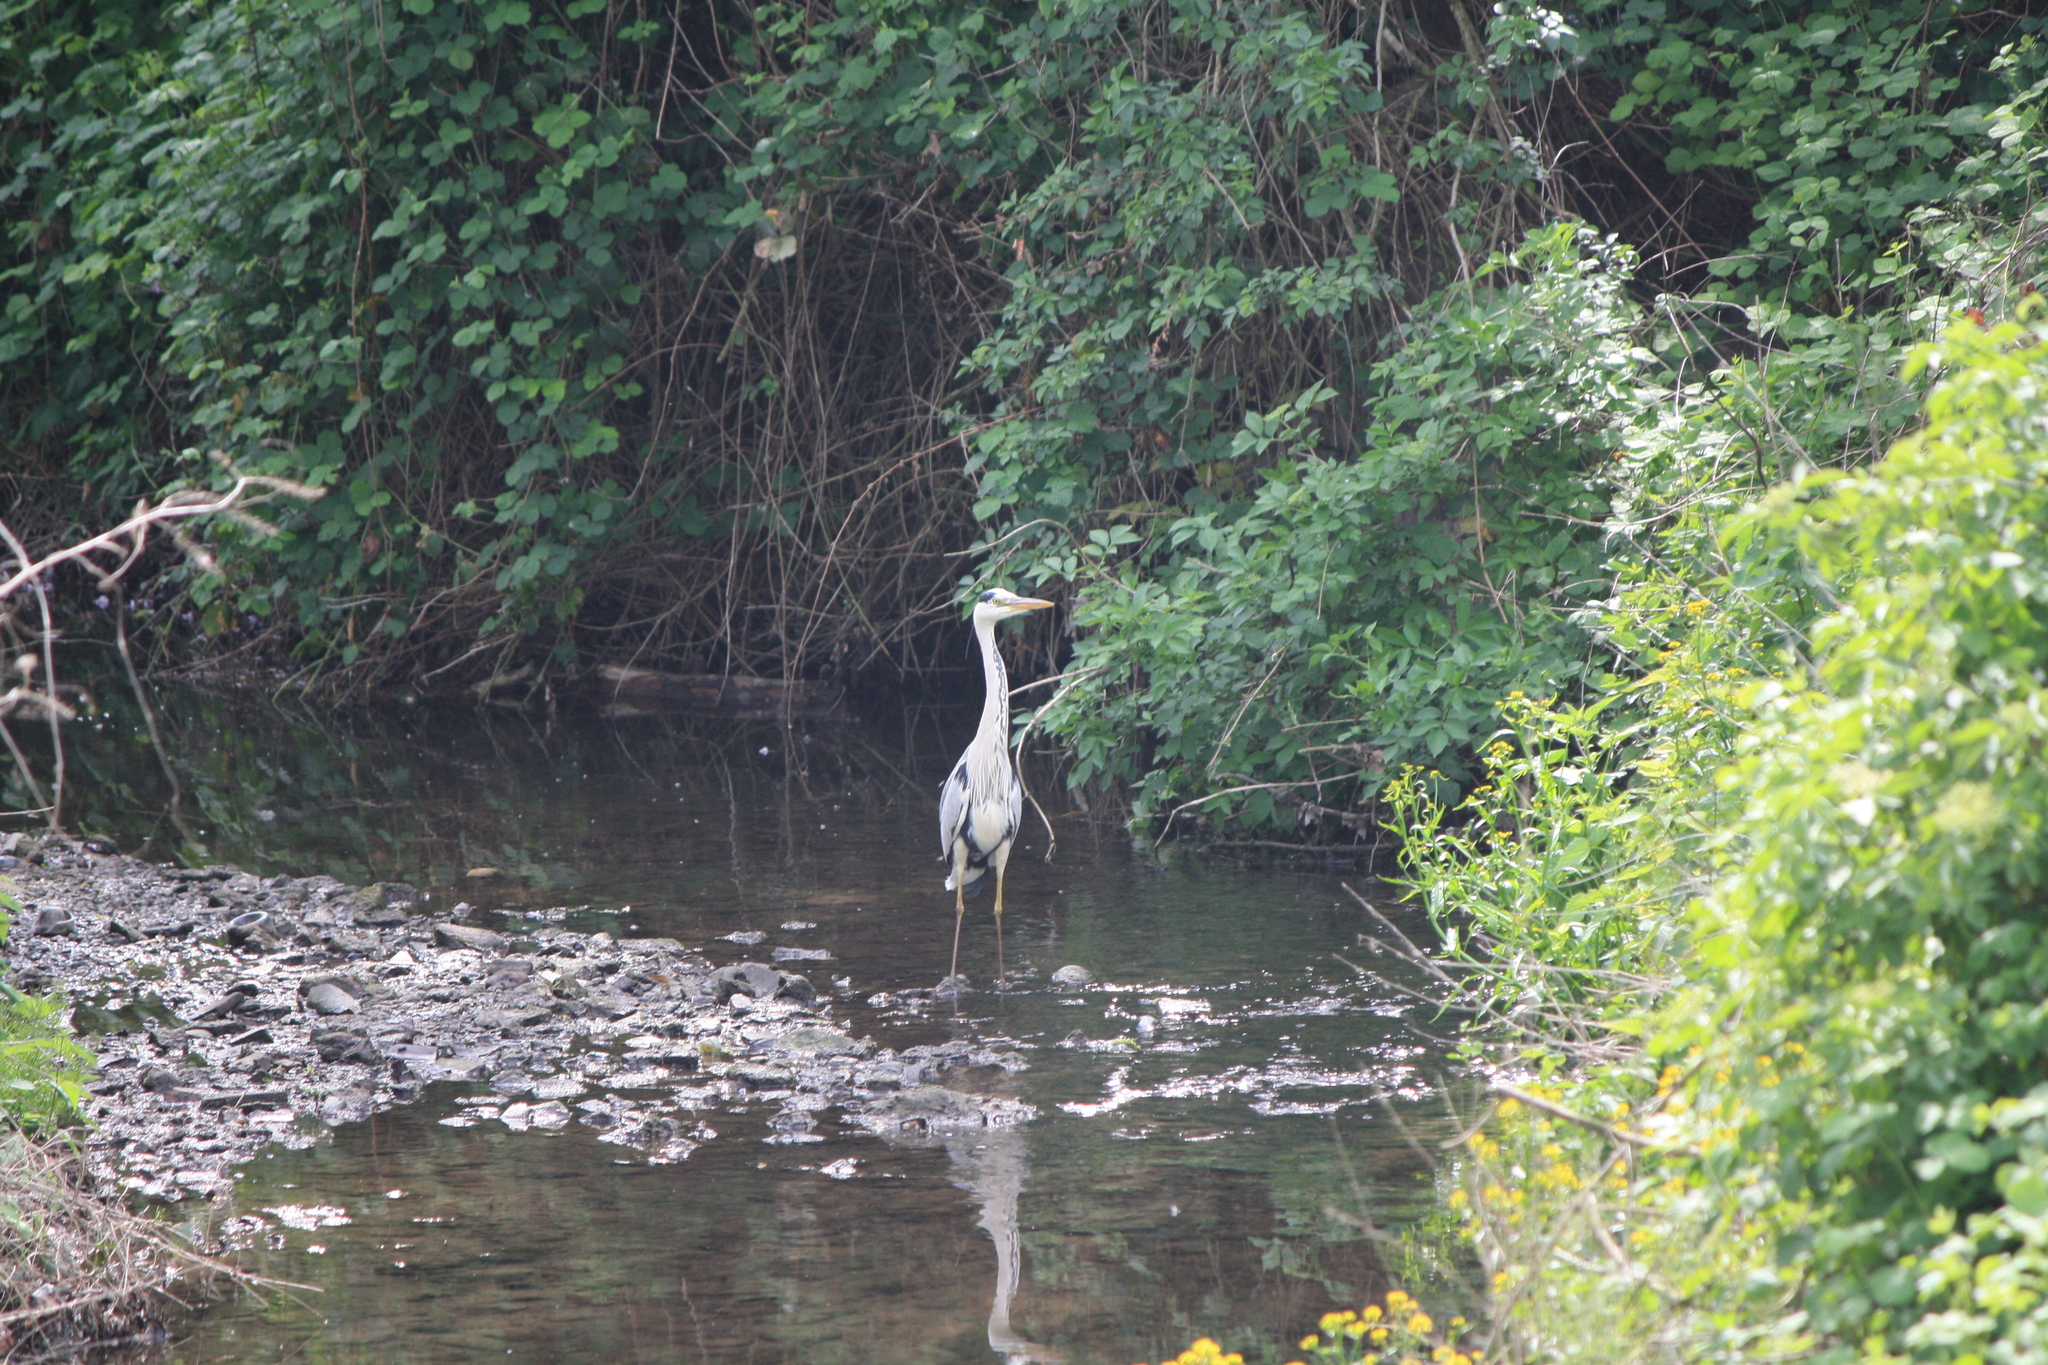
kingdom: Animalia
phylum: Chordata
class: Aves
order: Pelecaniformes
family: Ardeidae
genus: Ardea
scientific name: Ardea cinerea
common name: Grey heron
